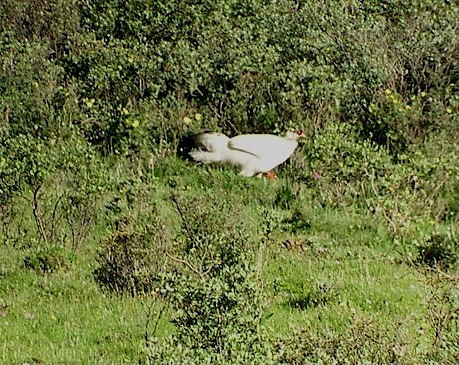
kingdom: Animalia
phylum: Chordata
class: Aves
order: Galliformes
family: Phasianidae
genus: Crossoptilon
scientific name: Crossoptilon crossoptilon
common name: White eared-pheasant
